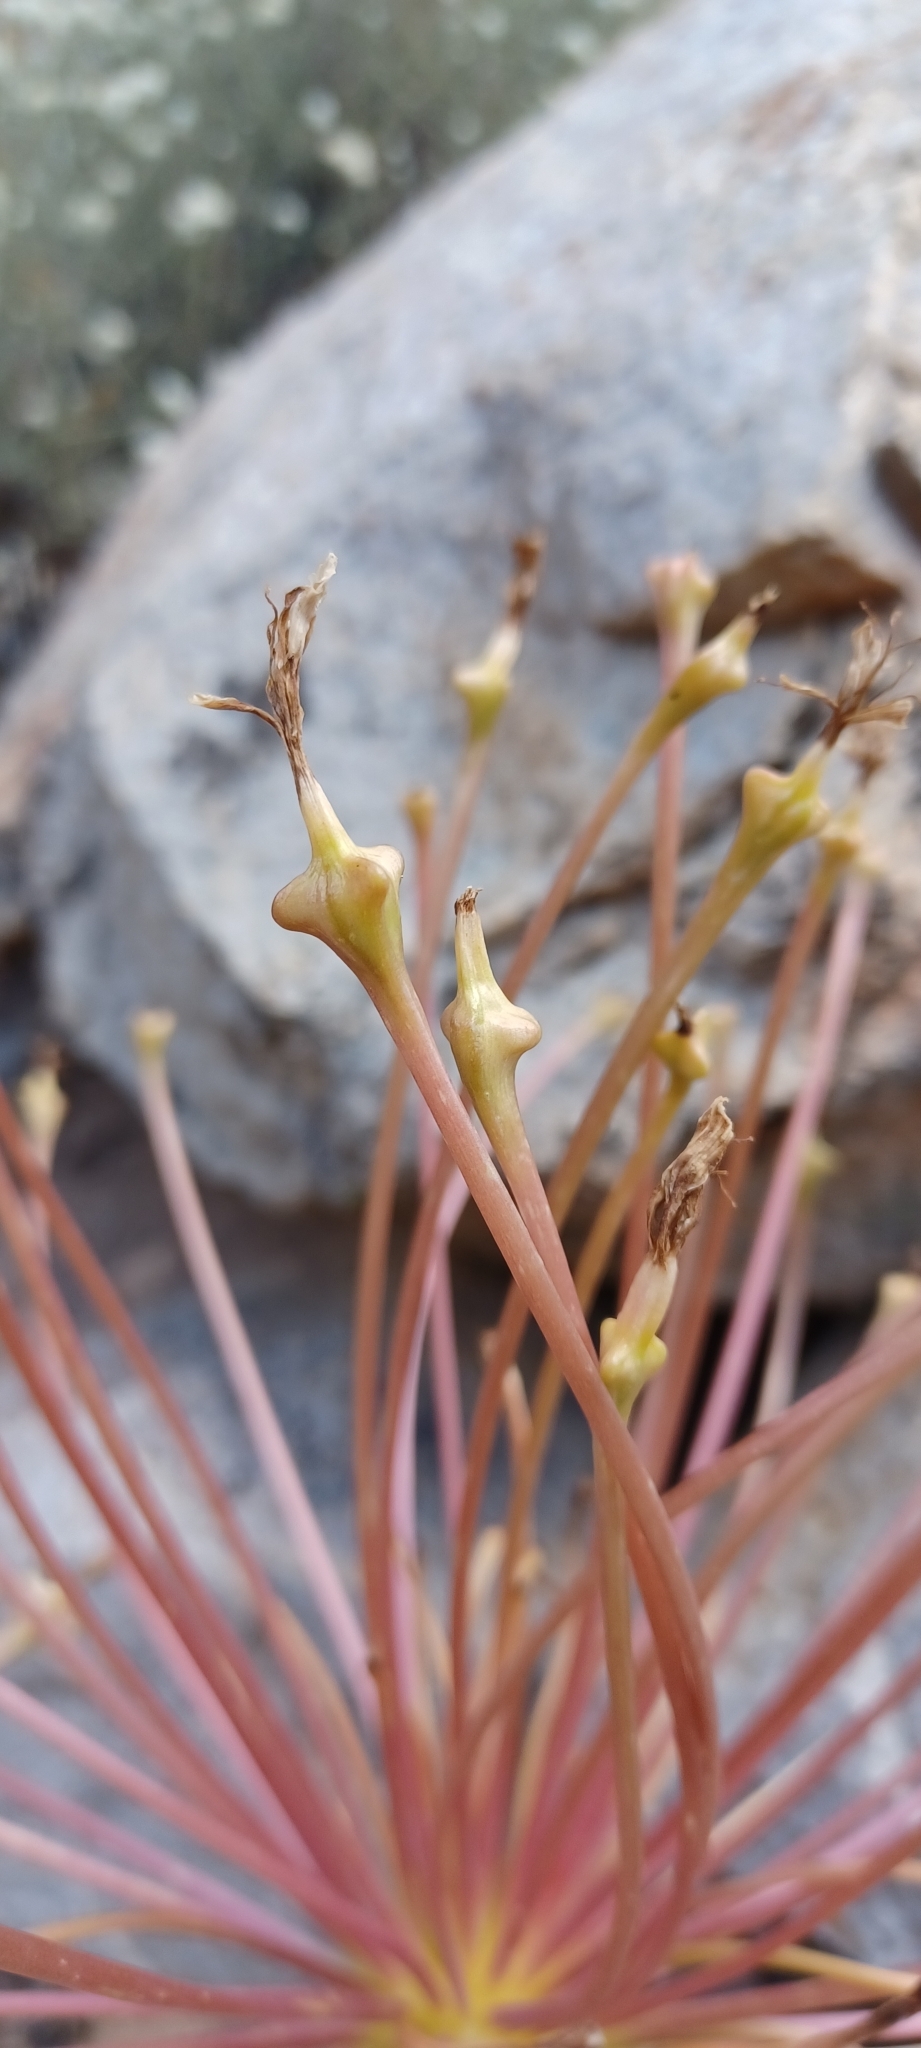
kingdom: Plantae
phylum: Tracheophyta
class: Liliopsida
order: Asparagales
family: Amaryllidaceae
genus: Boophone
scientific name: Boophone disticha
